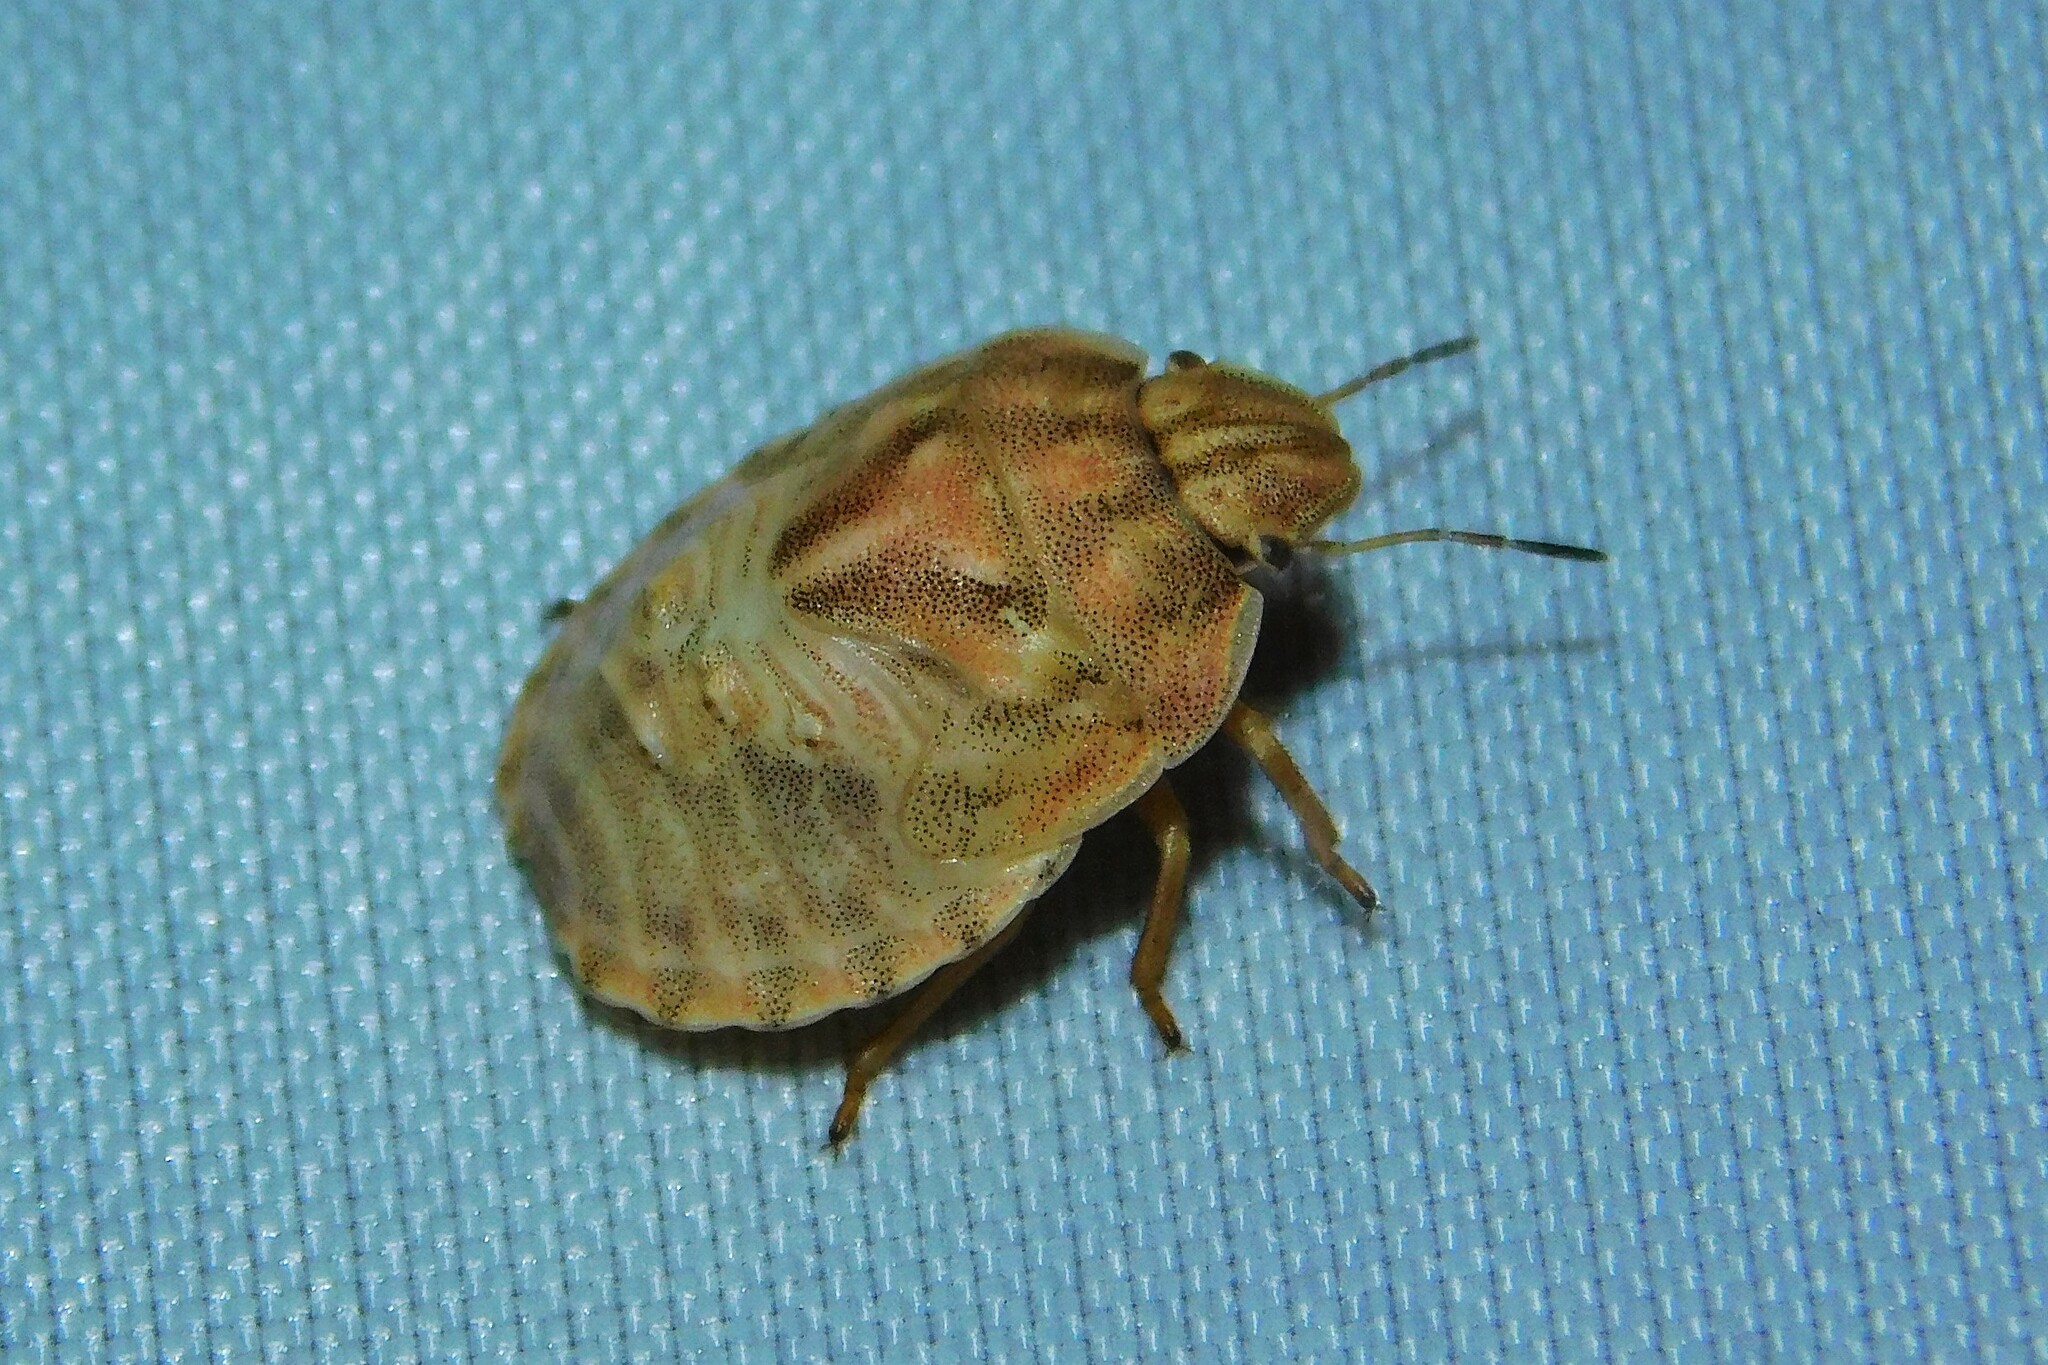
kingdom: Animalia
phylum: Arthropoda
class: Insecta
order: Hemiptera
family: Scutelleridae
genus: Eurygaster
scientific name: Eurygaster maura
